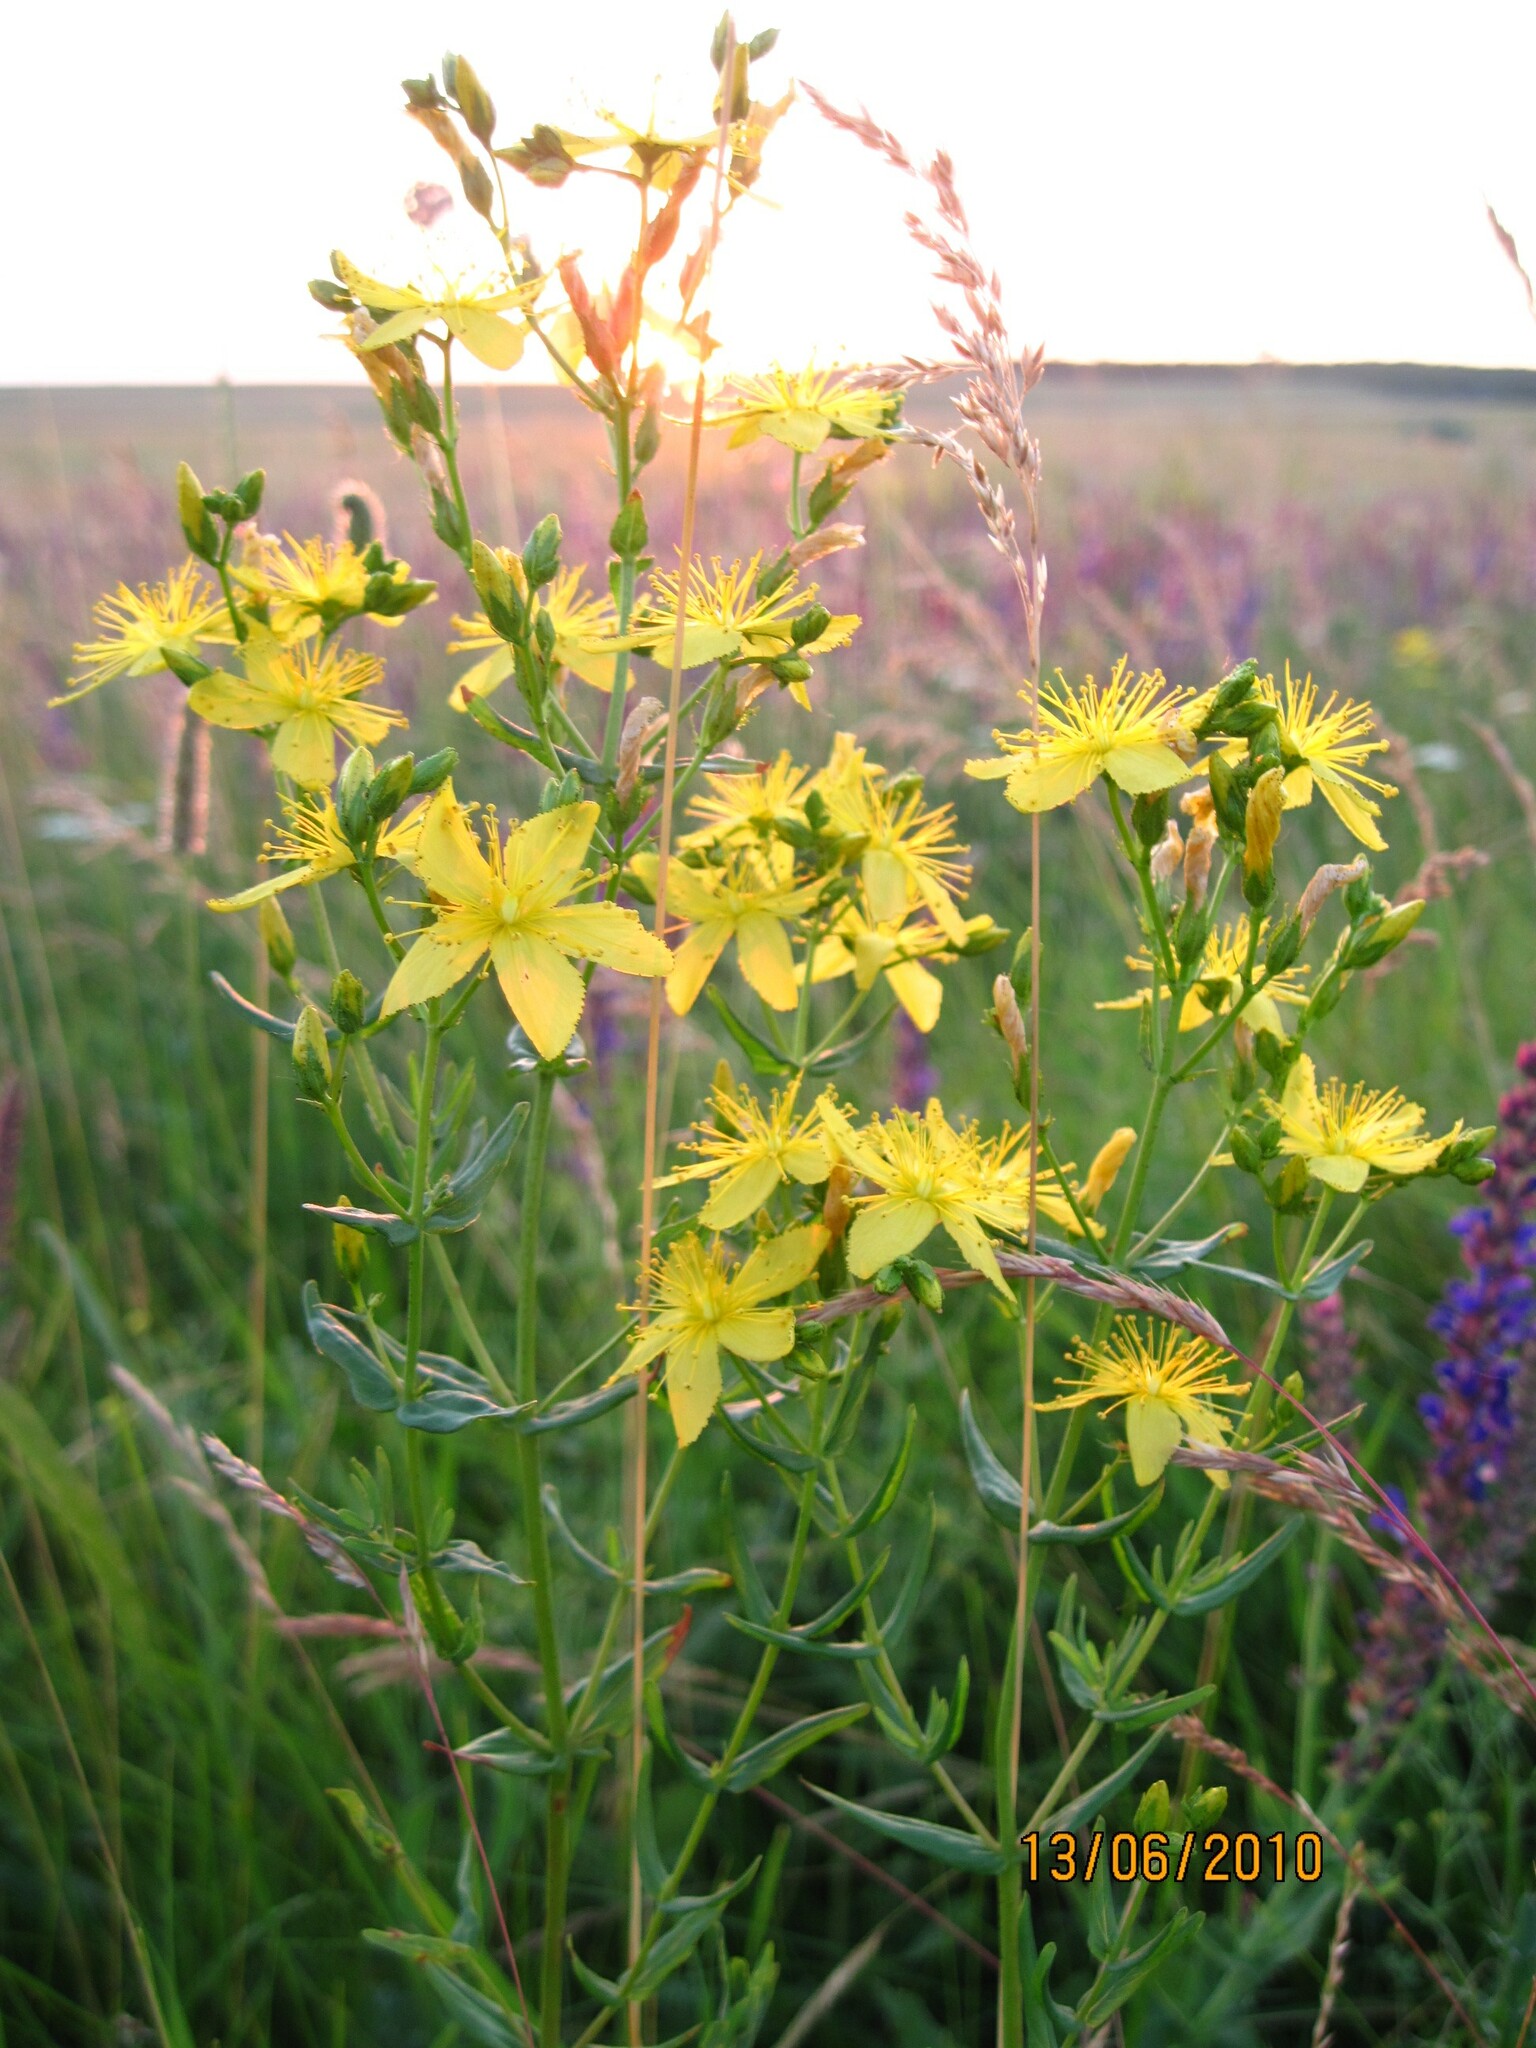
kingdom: Plantae
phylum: Tracheophyta
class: Magnoliopsida
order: Malpighiales
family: Hypericaceae
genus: Hypericum
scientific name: Hypericum elegans
